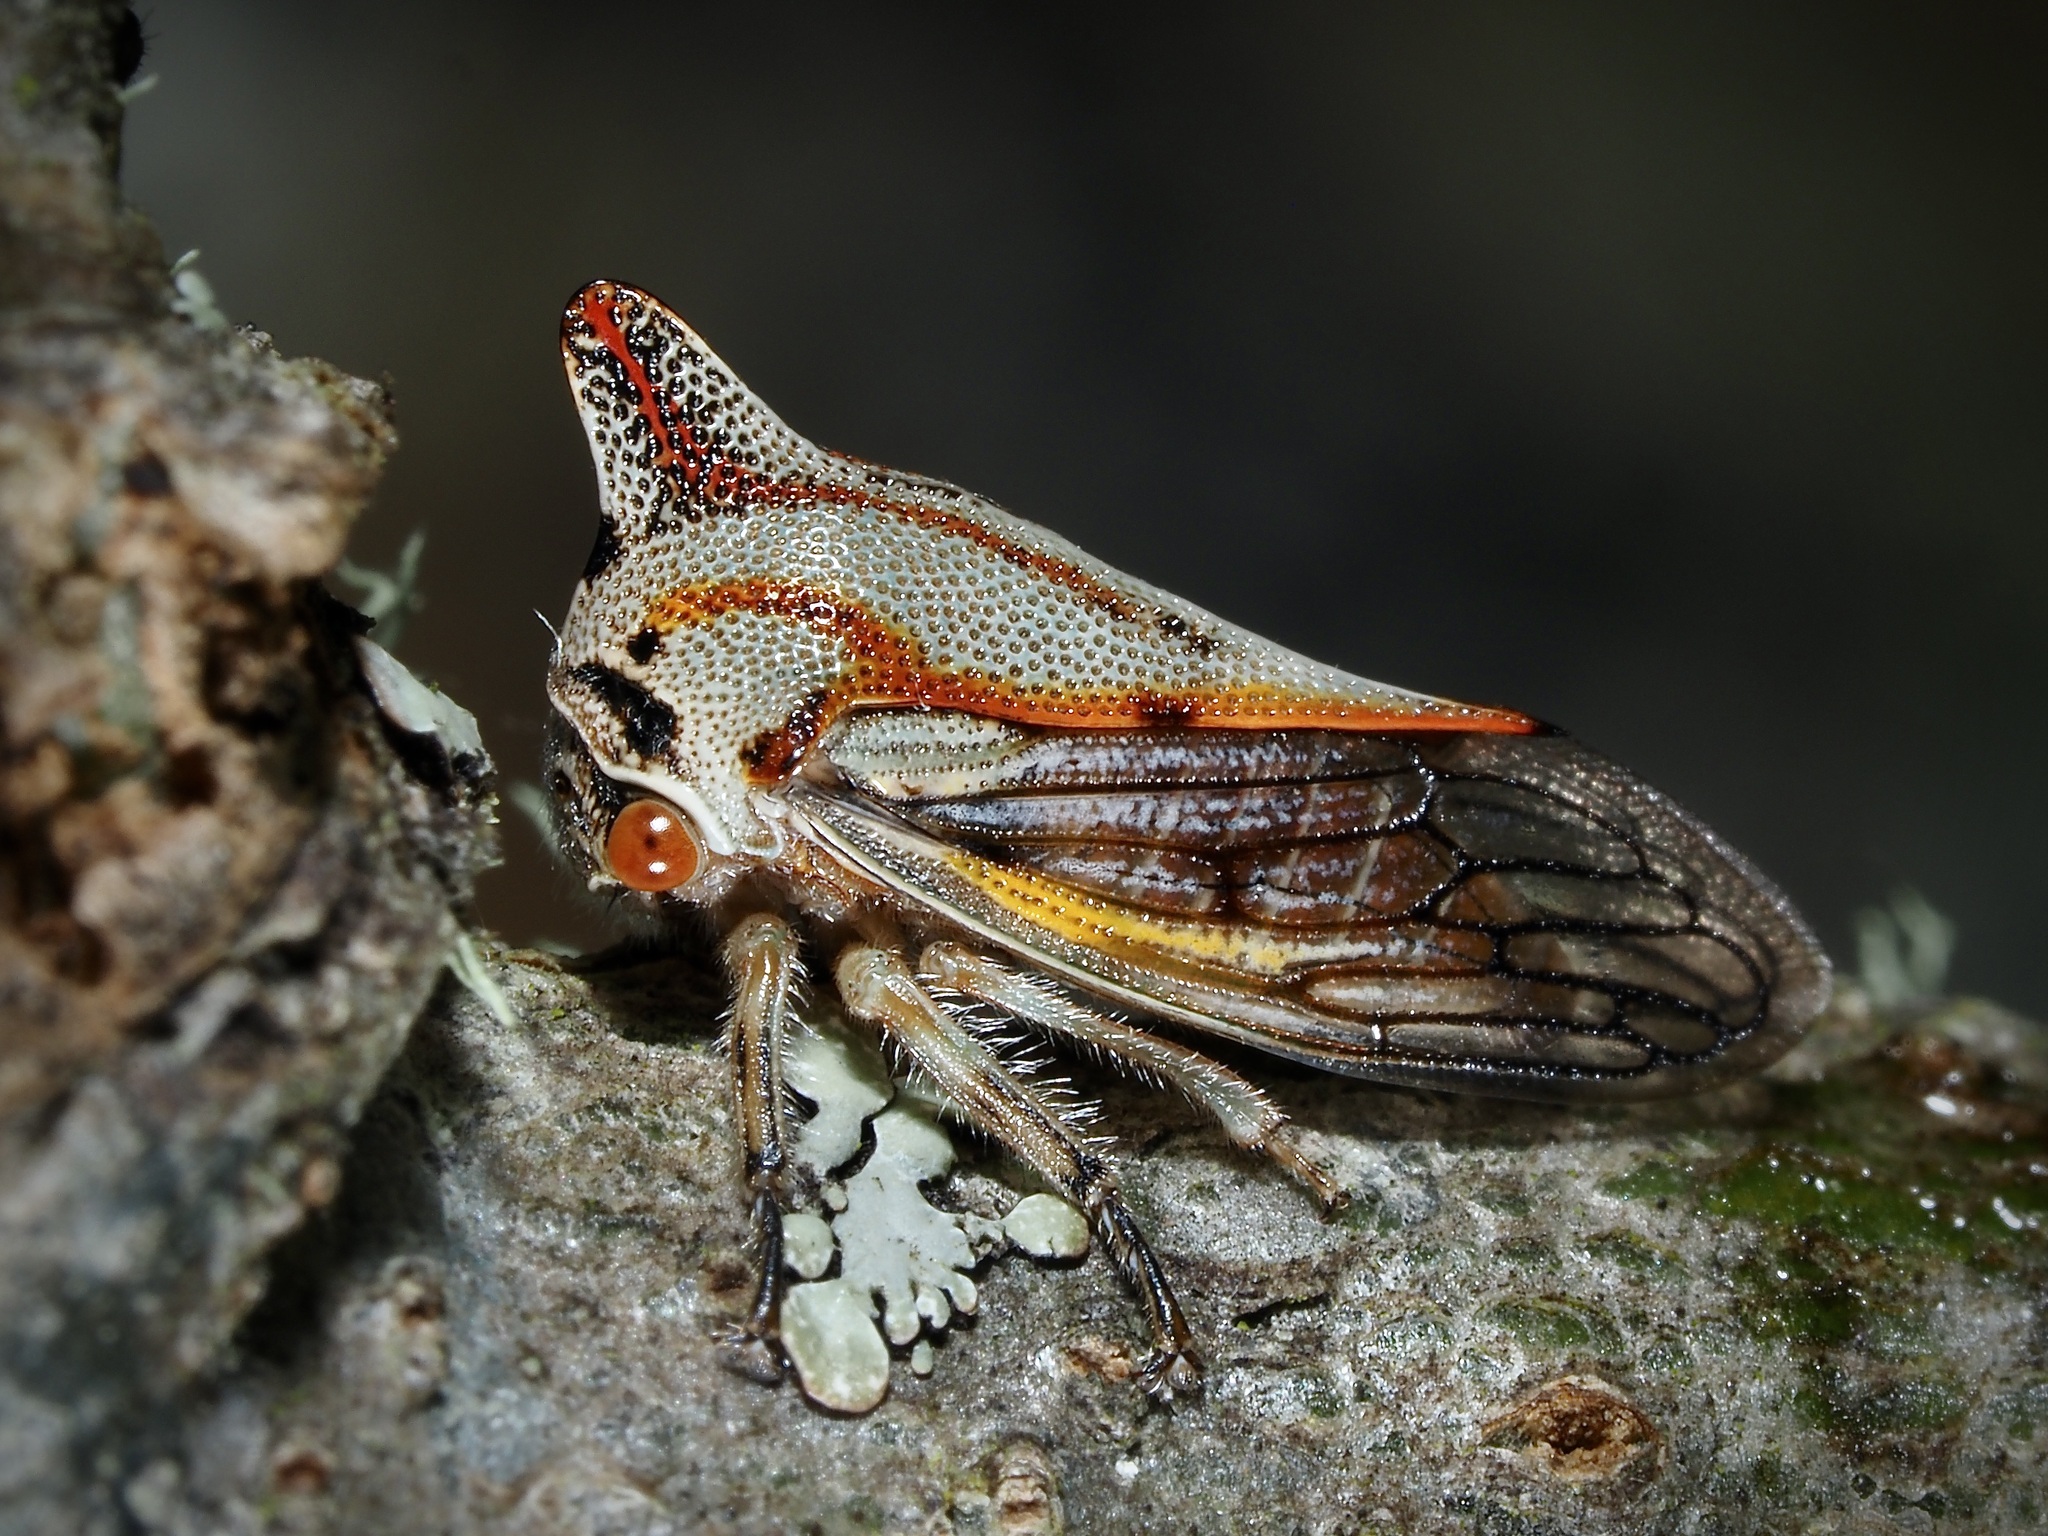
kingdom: Animalia
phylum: Arthropoda
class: Insecta
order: Hemiptera
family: Membracidae
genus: Platycotis
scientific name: Platycotis vittatus
